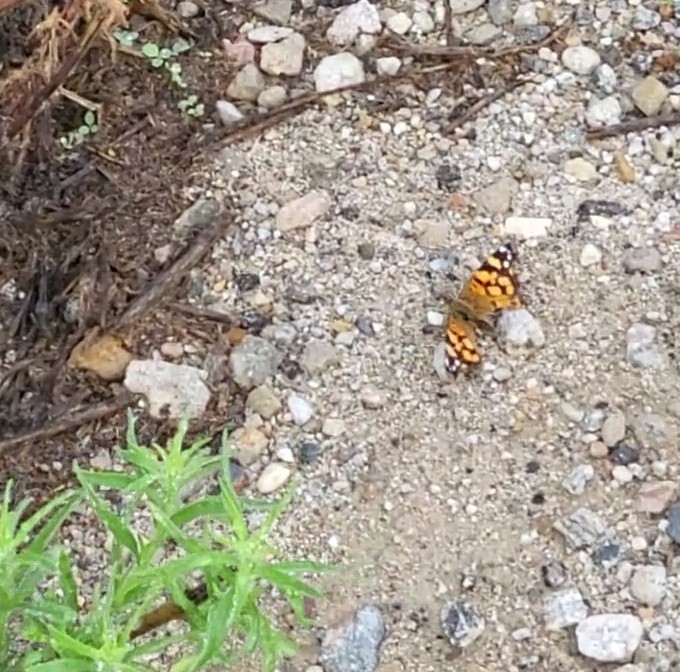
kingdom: Animalia
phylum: Arthropoda
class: Insecta
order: Lepidoptera
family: Nymphalidae
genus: Vanessa
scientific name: Vanessa annabella
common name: West coast lady
